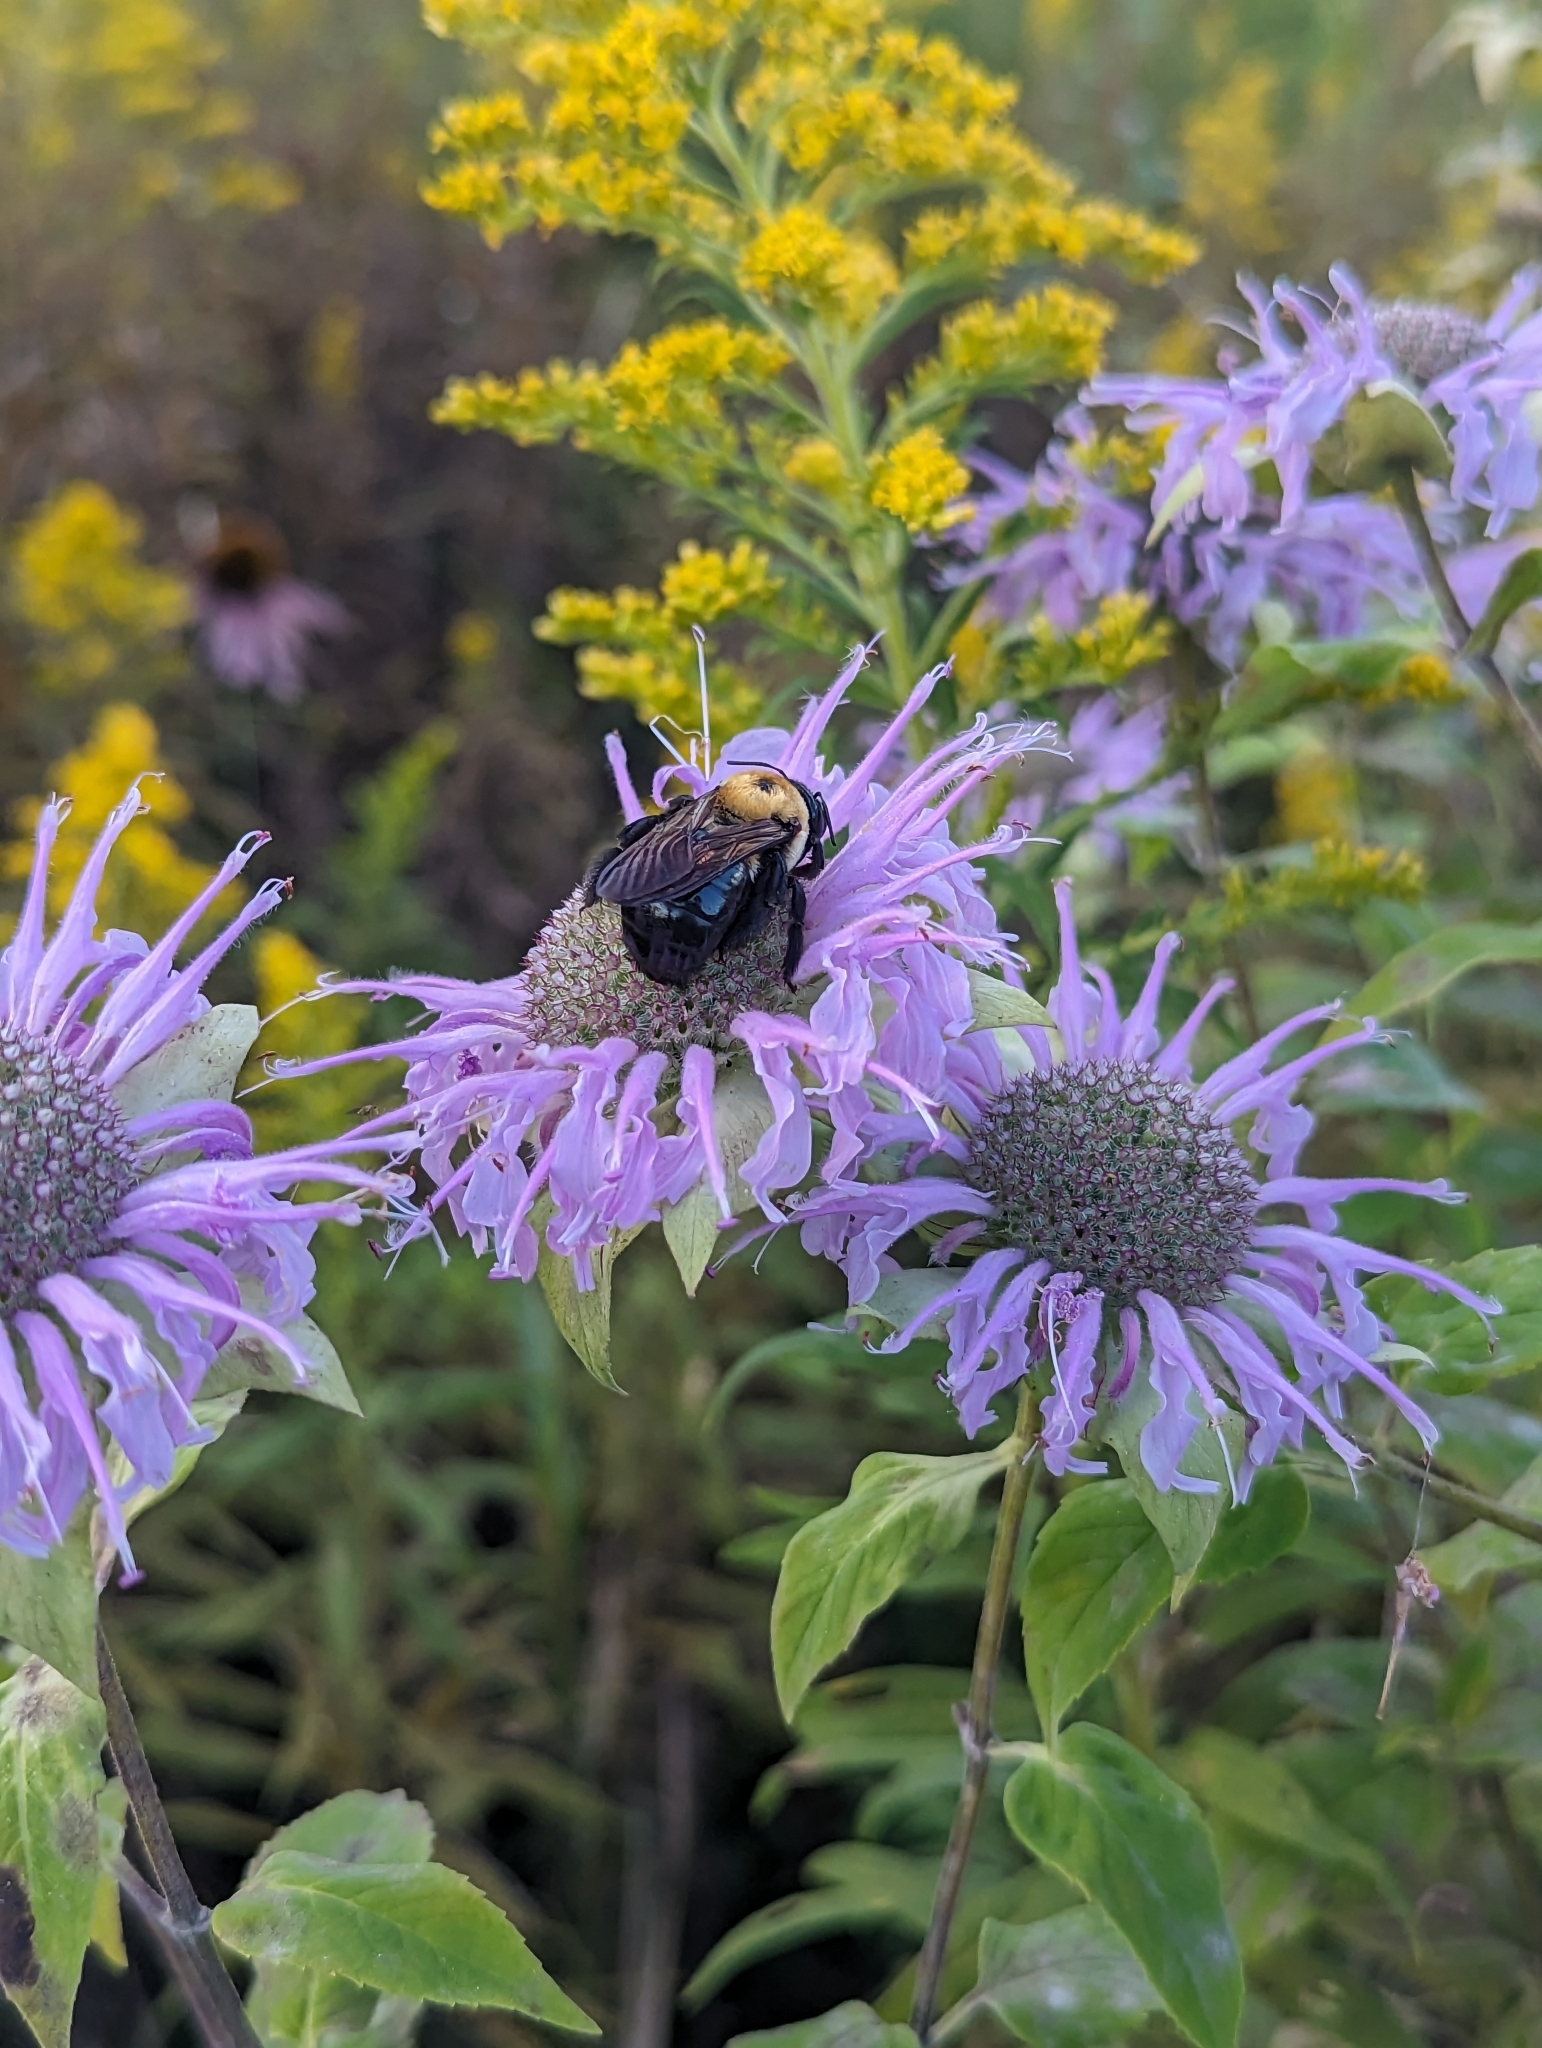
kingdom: Animalia
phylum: Arthropoda
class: Insecta
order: Hymenoptera
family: Apidae
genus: Xylocopa
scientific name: Xylocopa virginica
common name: Carpenter bee
